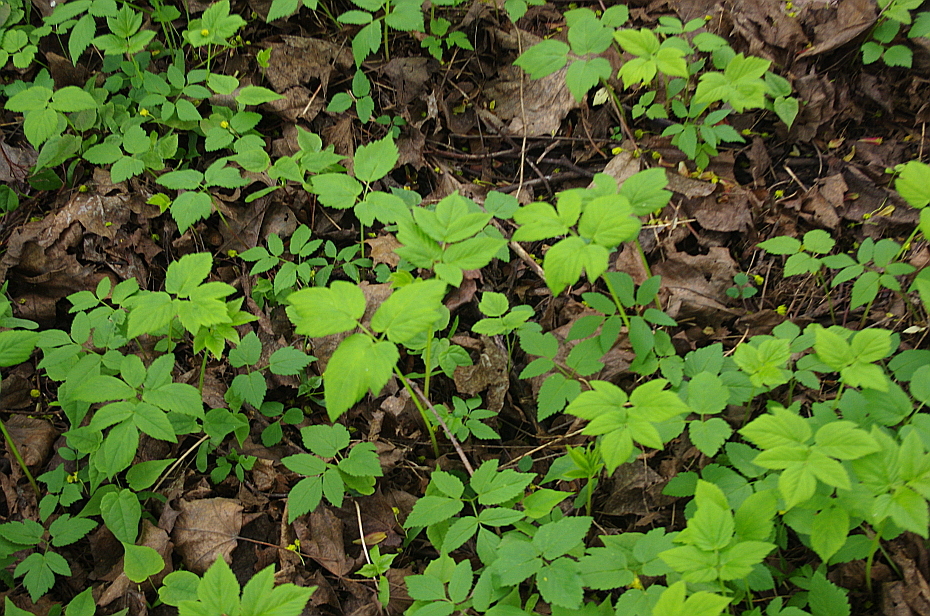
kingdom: Plantae
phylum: Tracheophyta
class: Magnoliopsida
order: Apiales
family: Apiaceae
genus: Aegopodium
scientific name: Aegopodium podagraria
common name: Ground-elder
